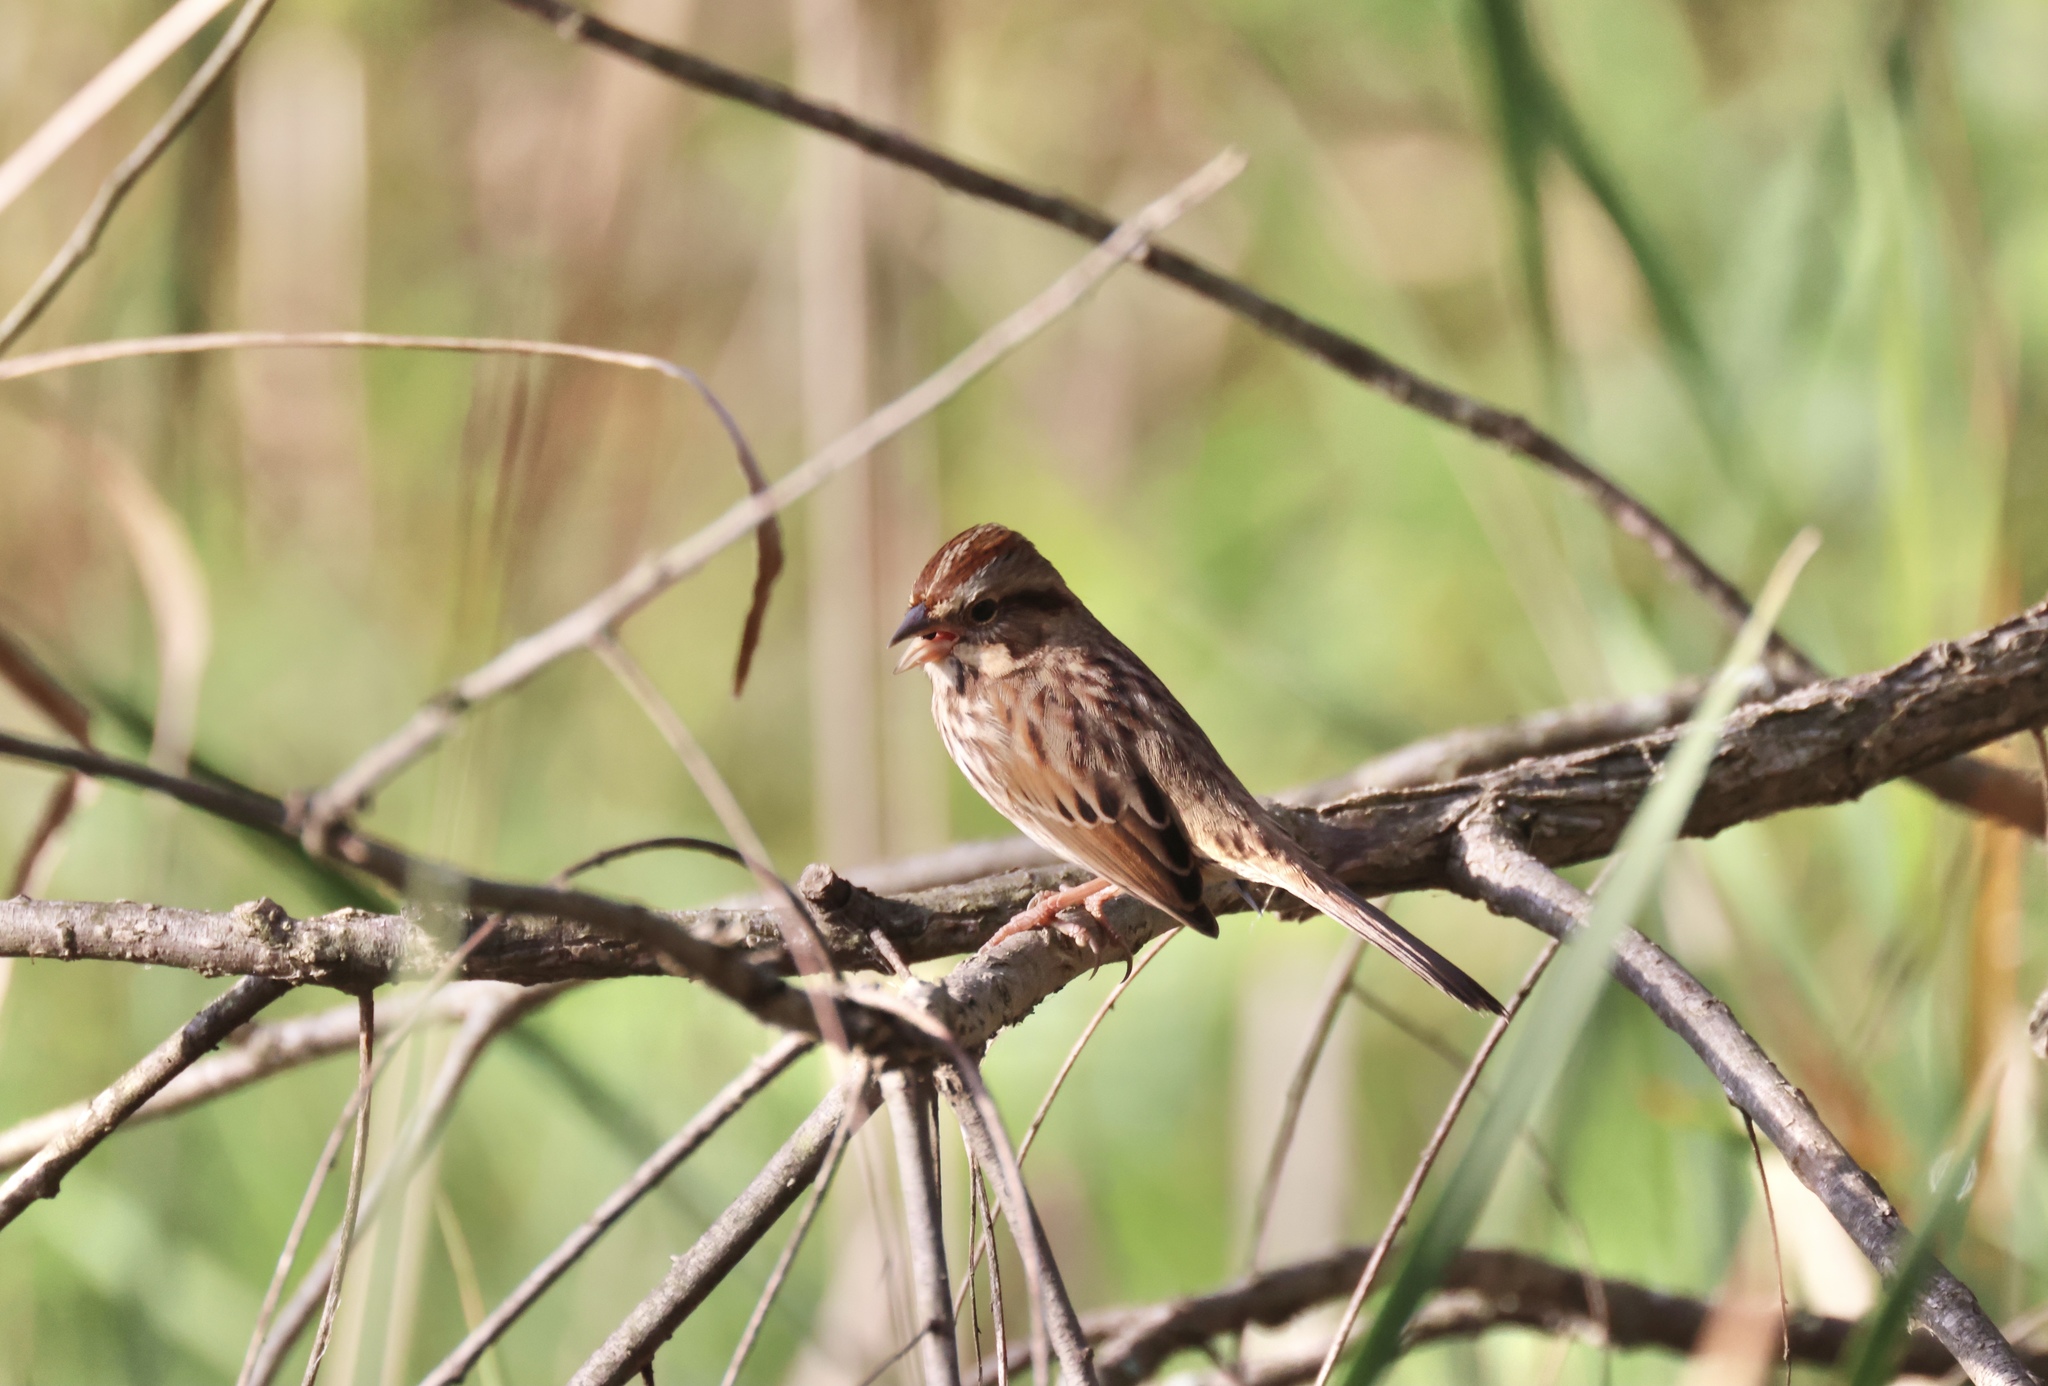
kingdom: Animalia
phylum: Chordata
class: Aves
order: Passeriformes
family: Passerellidae
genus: Melospiza
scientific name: Melospiza melodia
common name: Song sparrow
